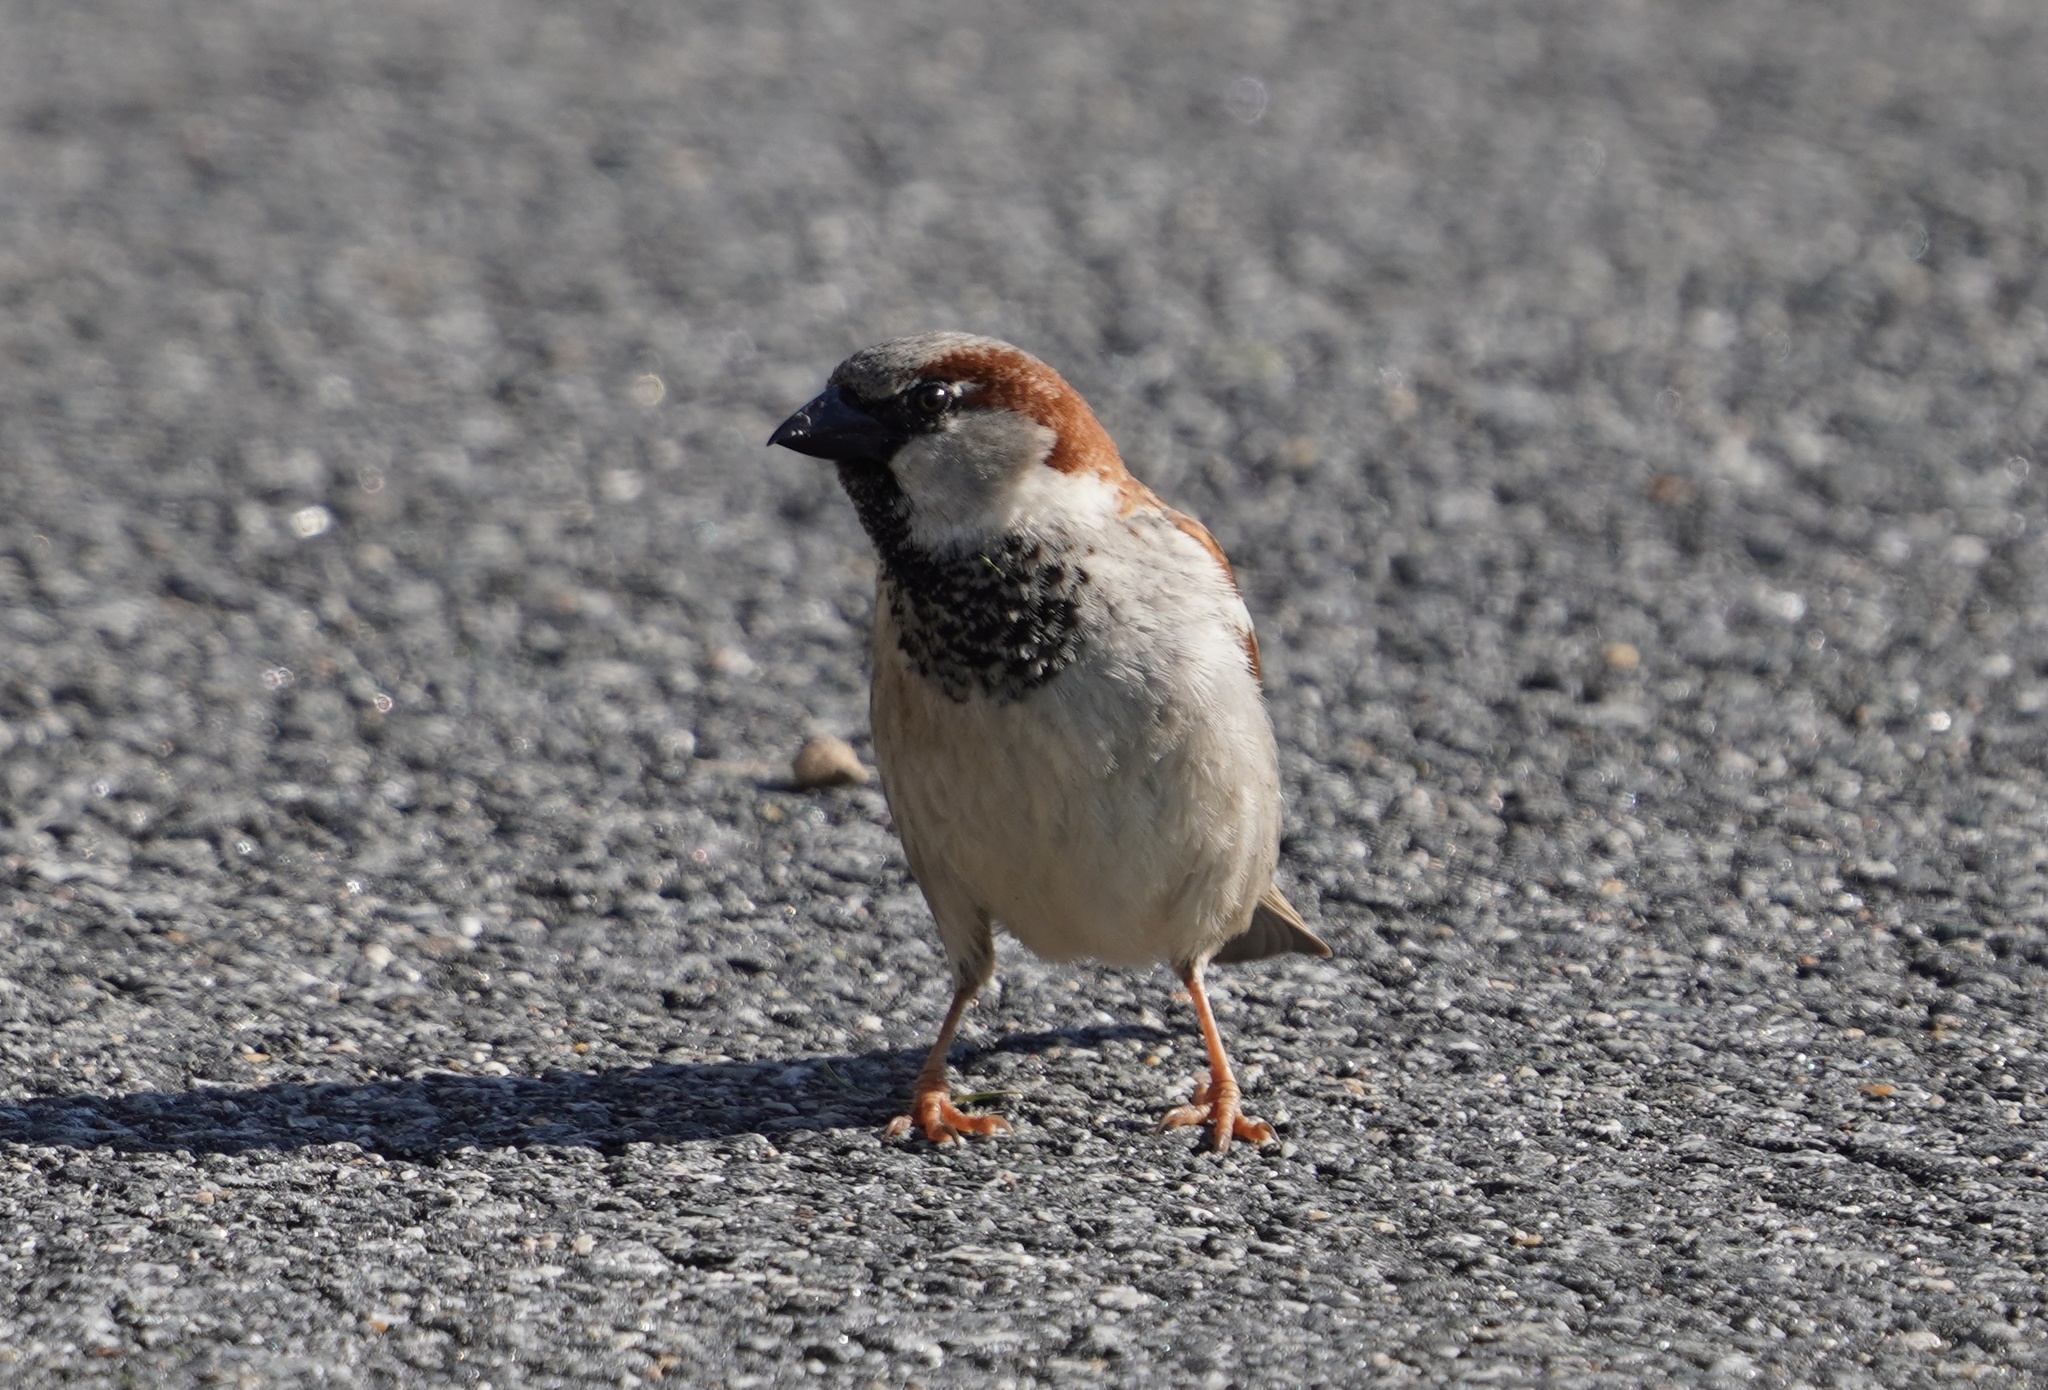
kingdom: Animalia
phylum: Chordata
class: Aves
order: Passeriformes
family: Passeridae
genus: Passer
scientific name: Passer domesticus
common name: House sparrow
